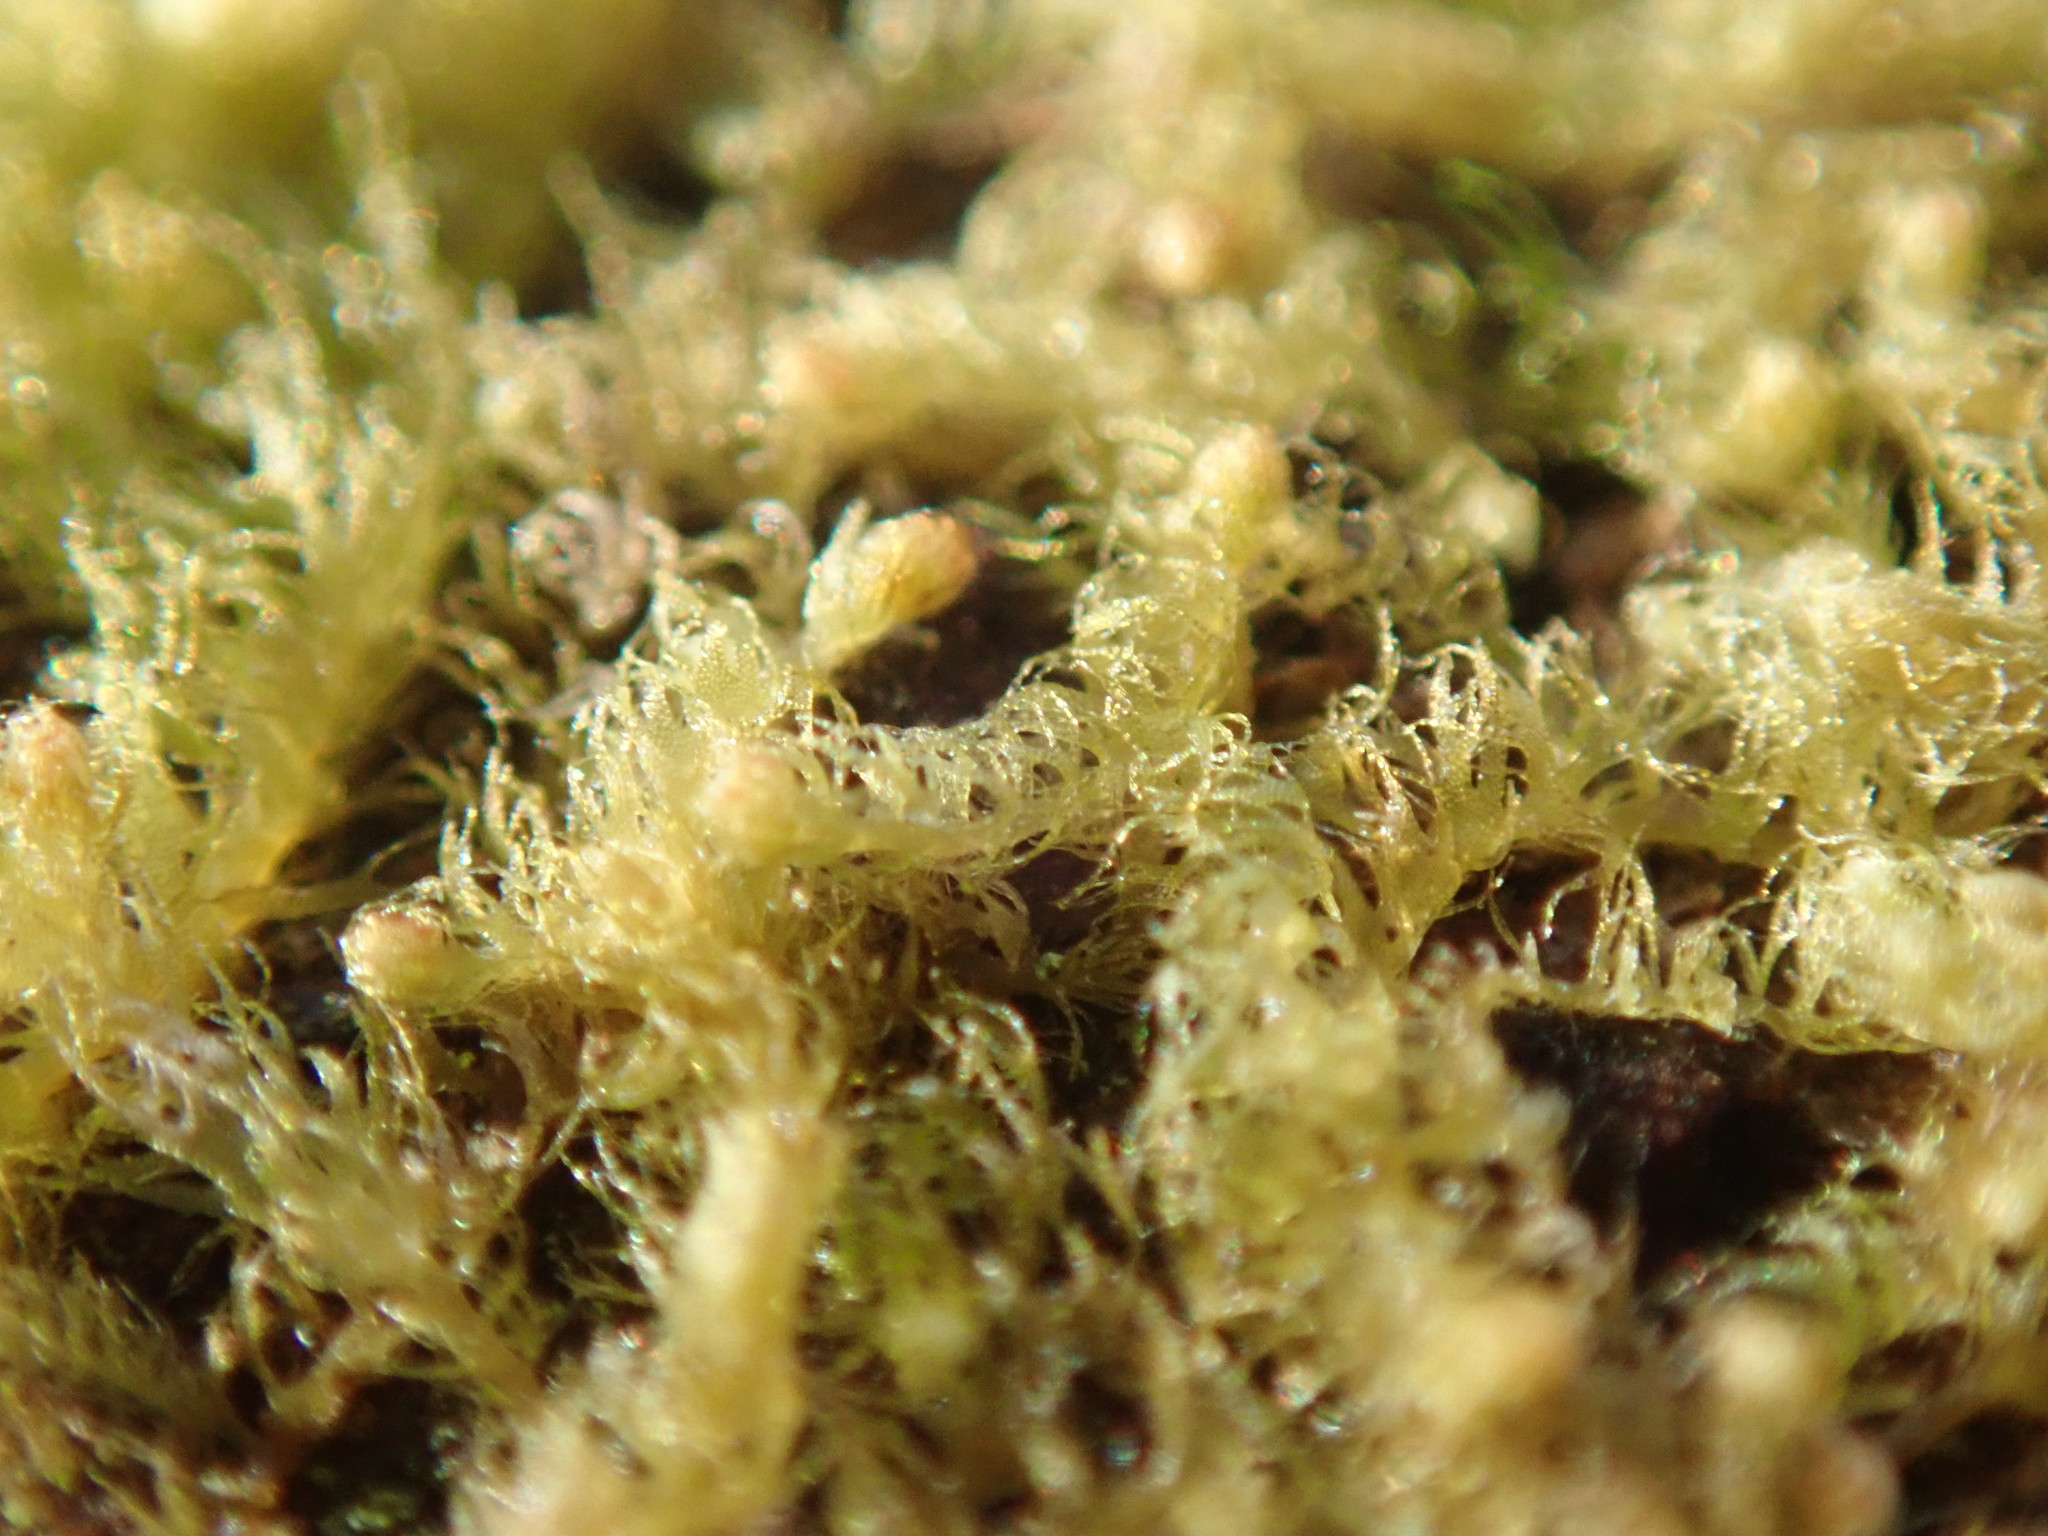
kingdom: Plantae
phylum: Marchantiophyta
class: Jungermanniopsida
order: Ptilidiales
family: Ptilidiaceae
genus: Ptilidium
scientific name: Ptilidium californicum
